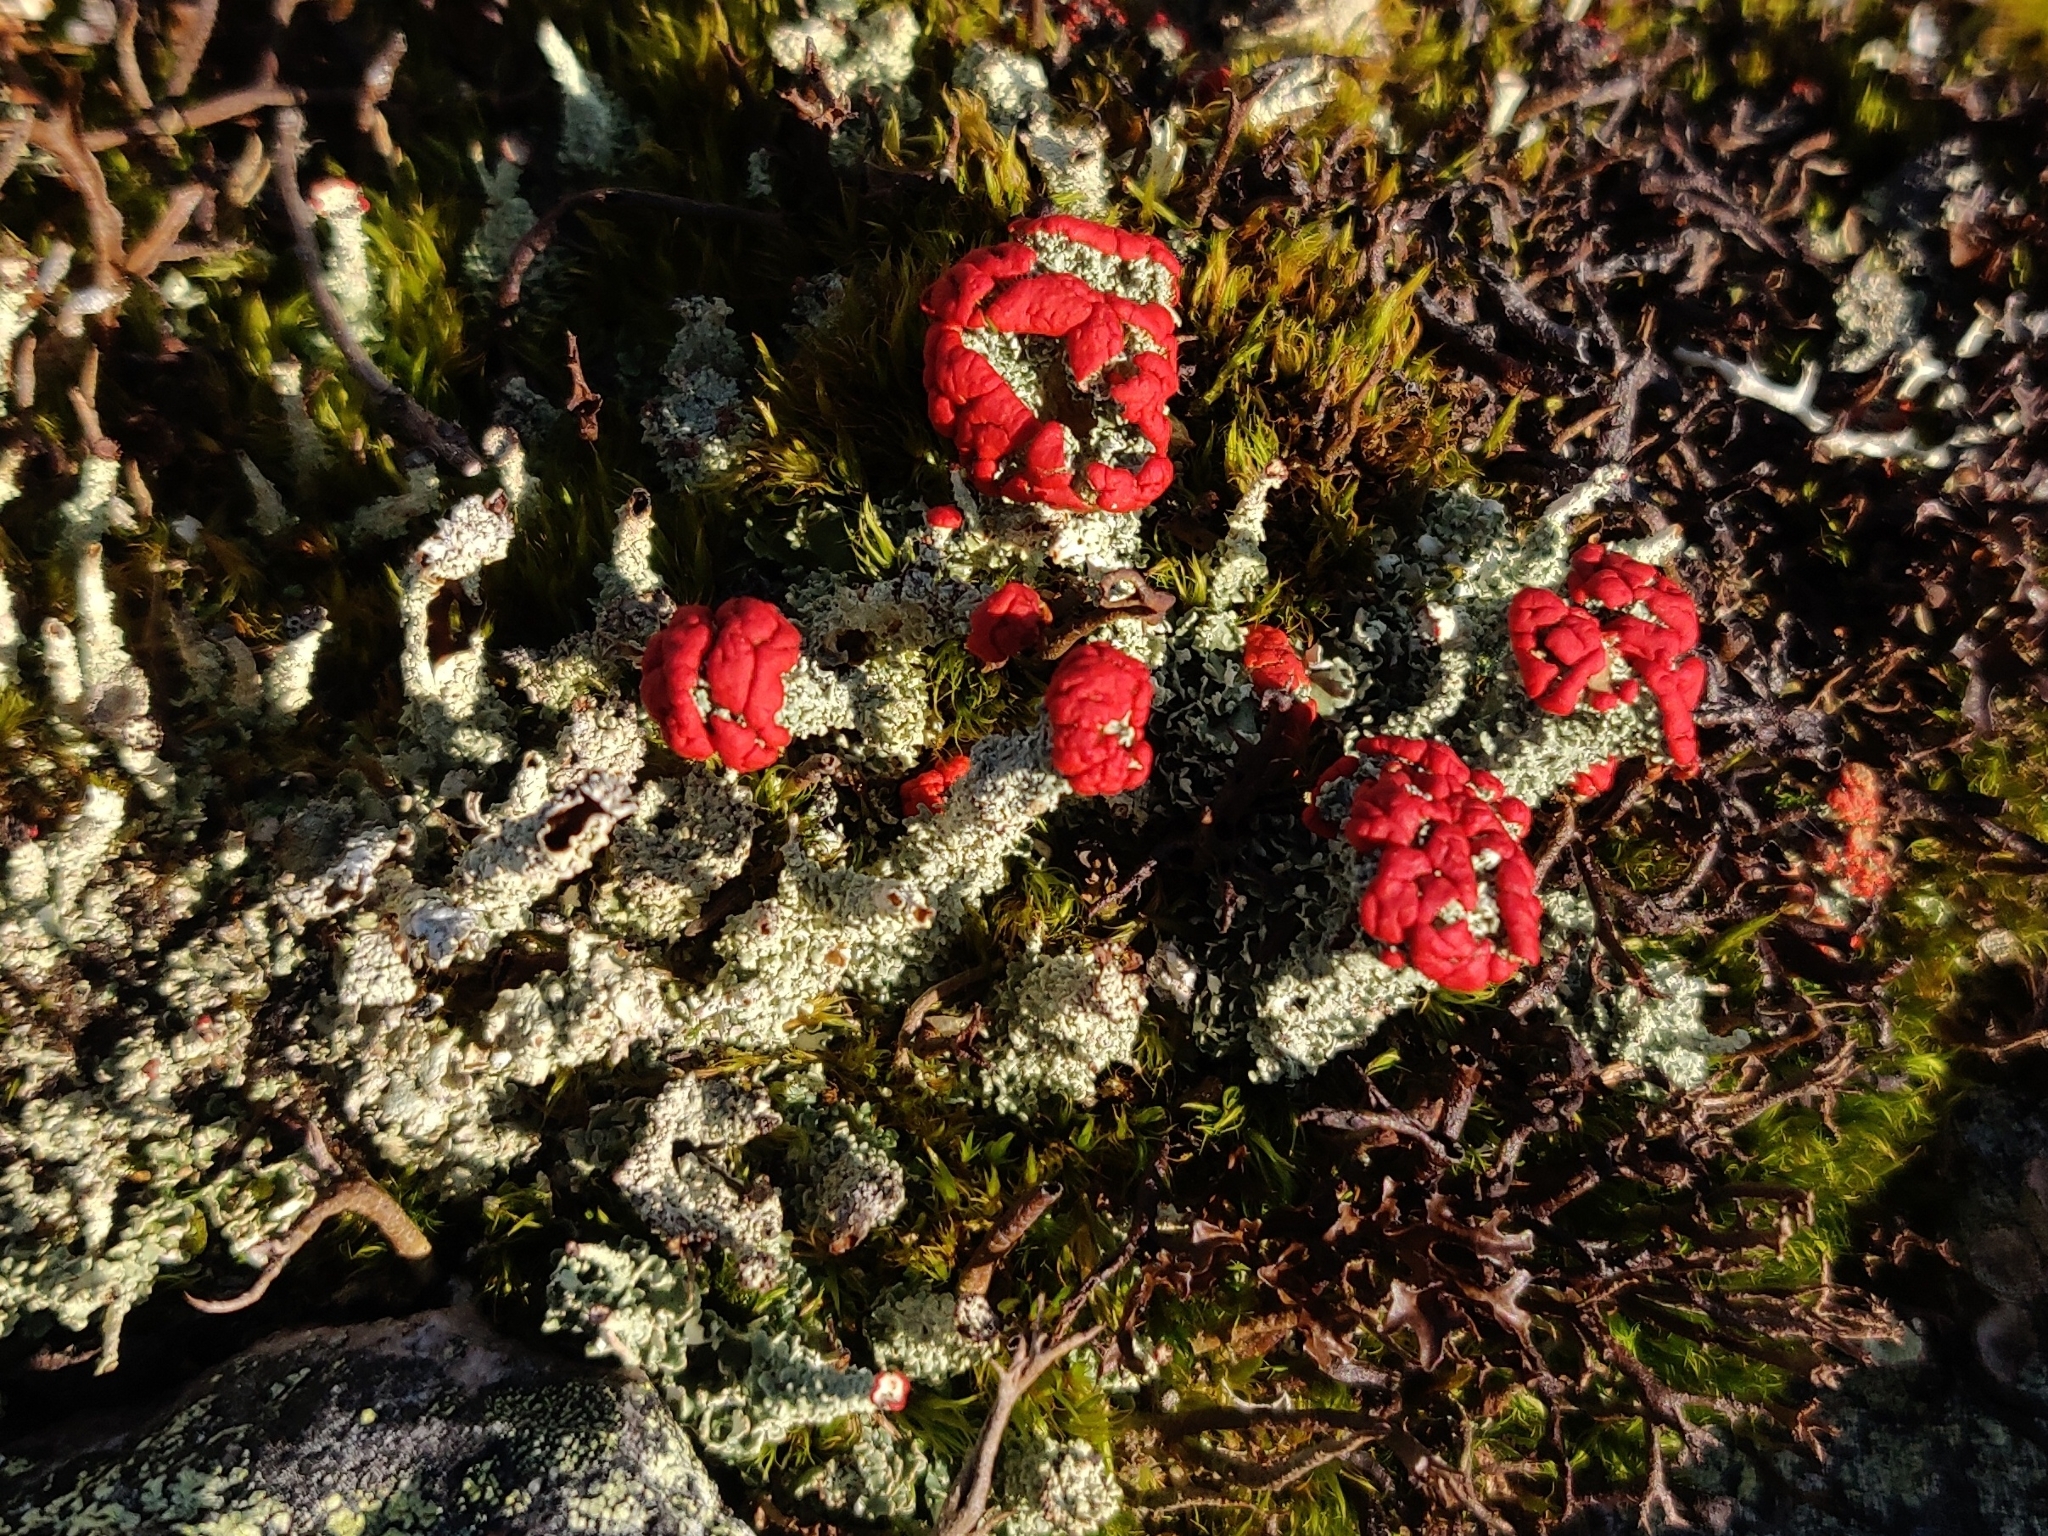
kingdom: Fungi
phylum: Ascomycota
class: Lecanoromycetes
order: Lecanorales
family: Cladoniaceae
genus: Cladonia
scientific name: Cladonia bellidiflora
